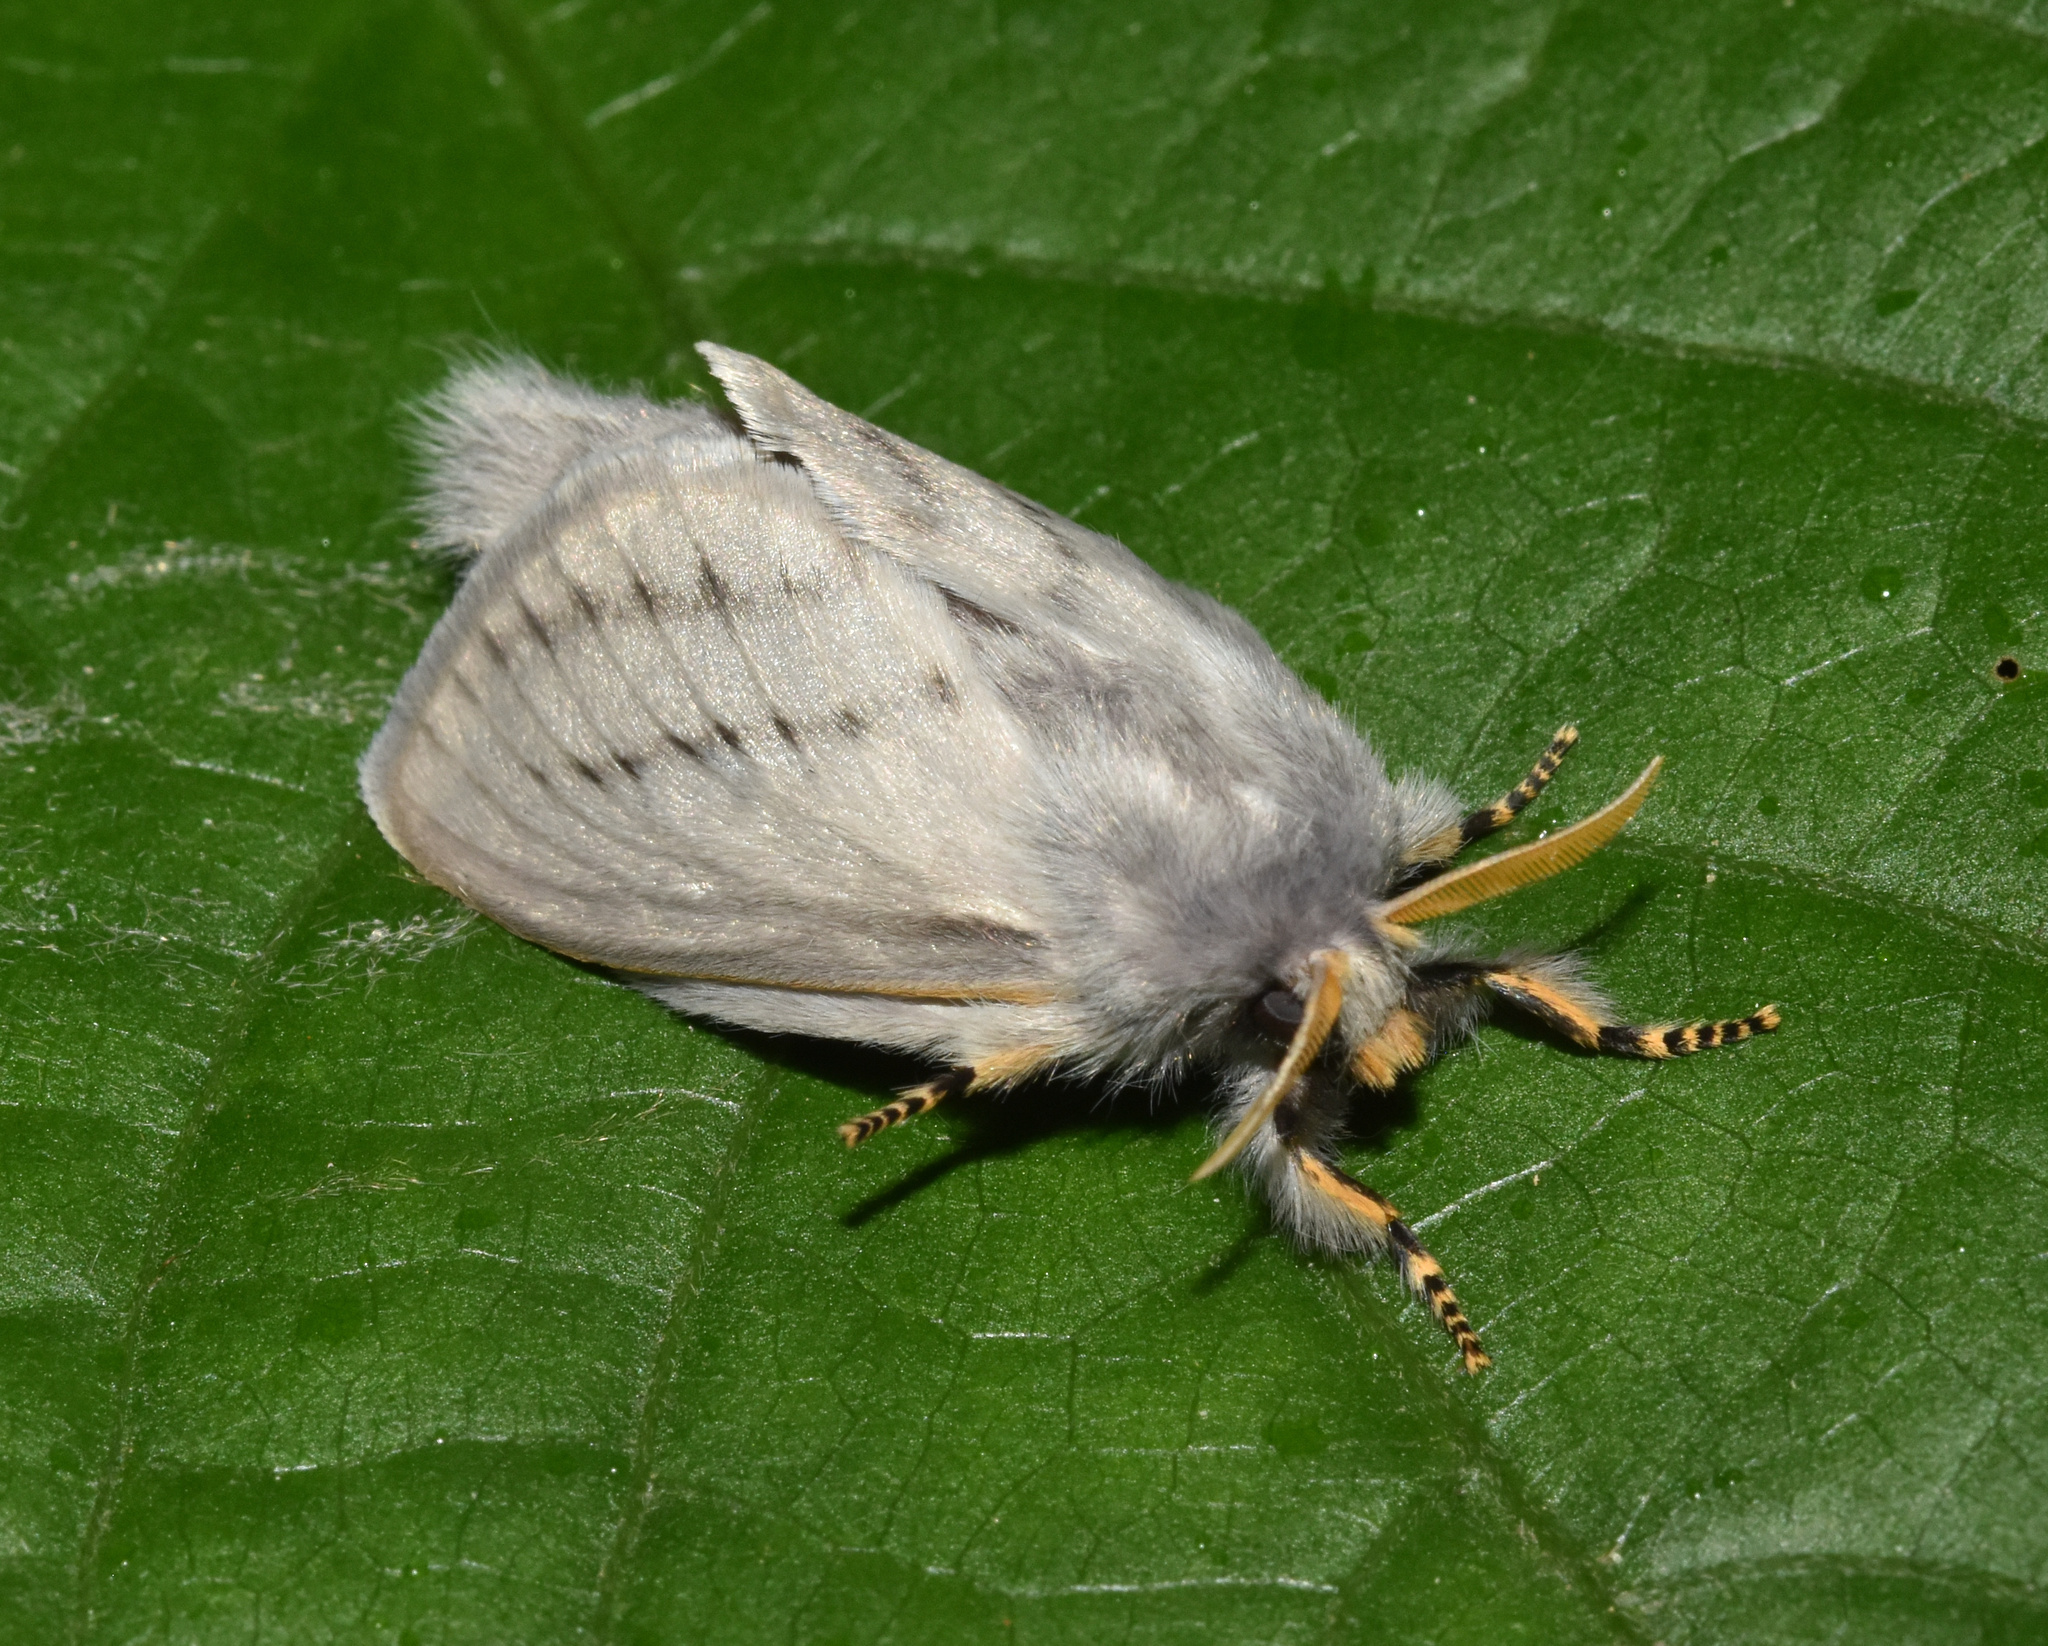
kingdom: Animalia
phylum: Arthropoda
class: Insecta
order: Lepidoptera
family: Lasiocampidae
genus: Beralade
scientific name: Beralade perobliqua
